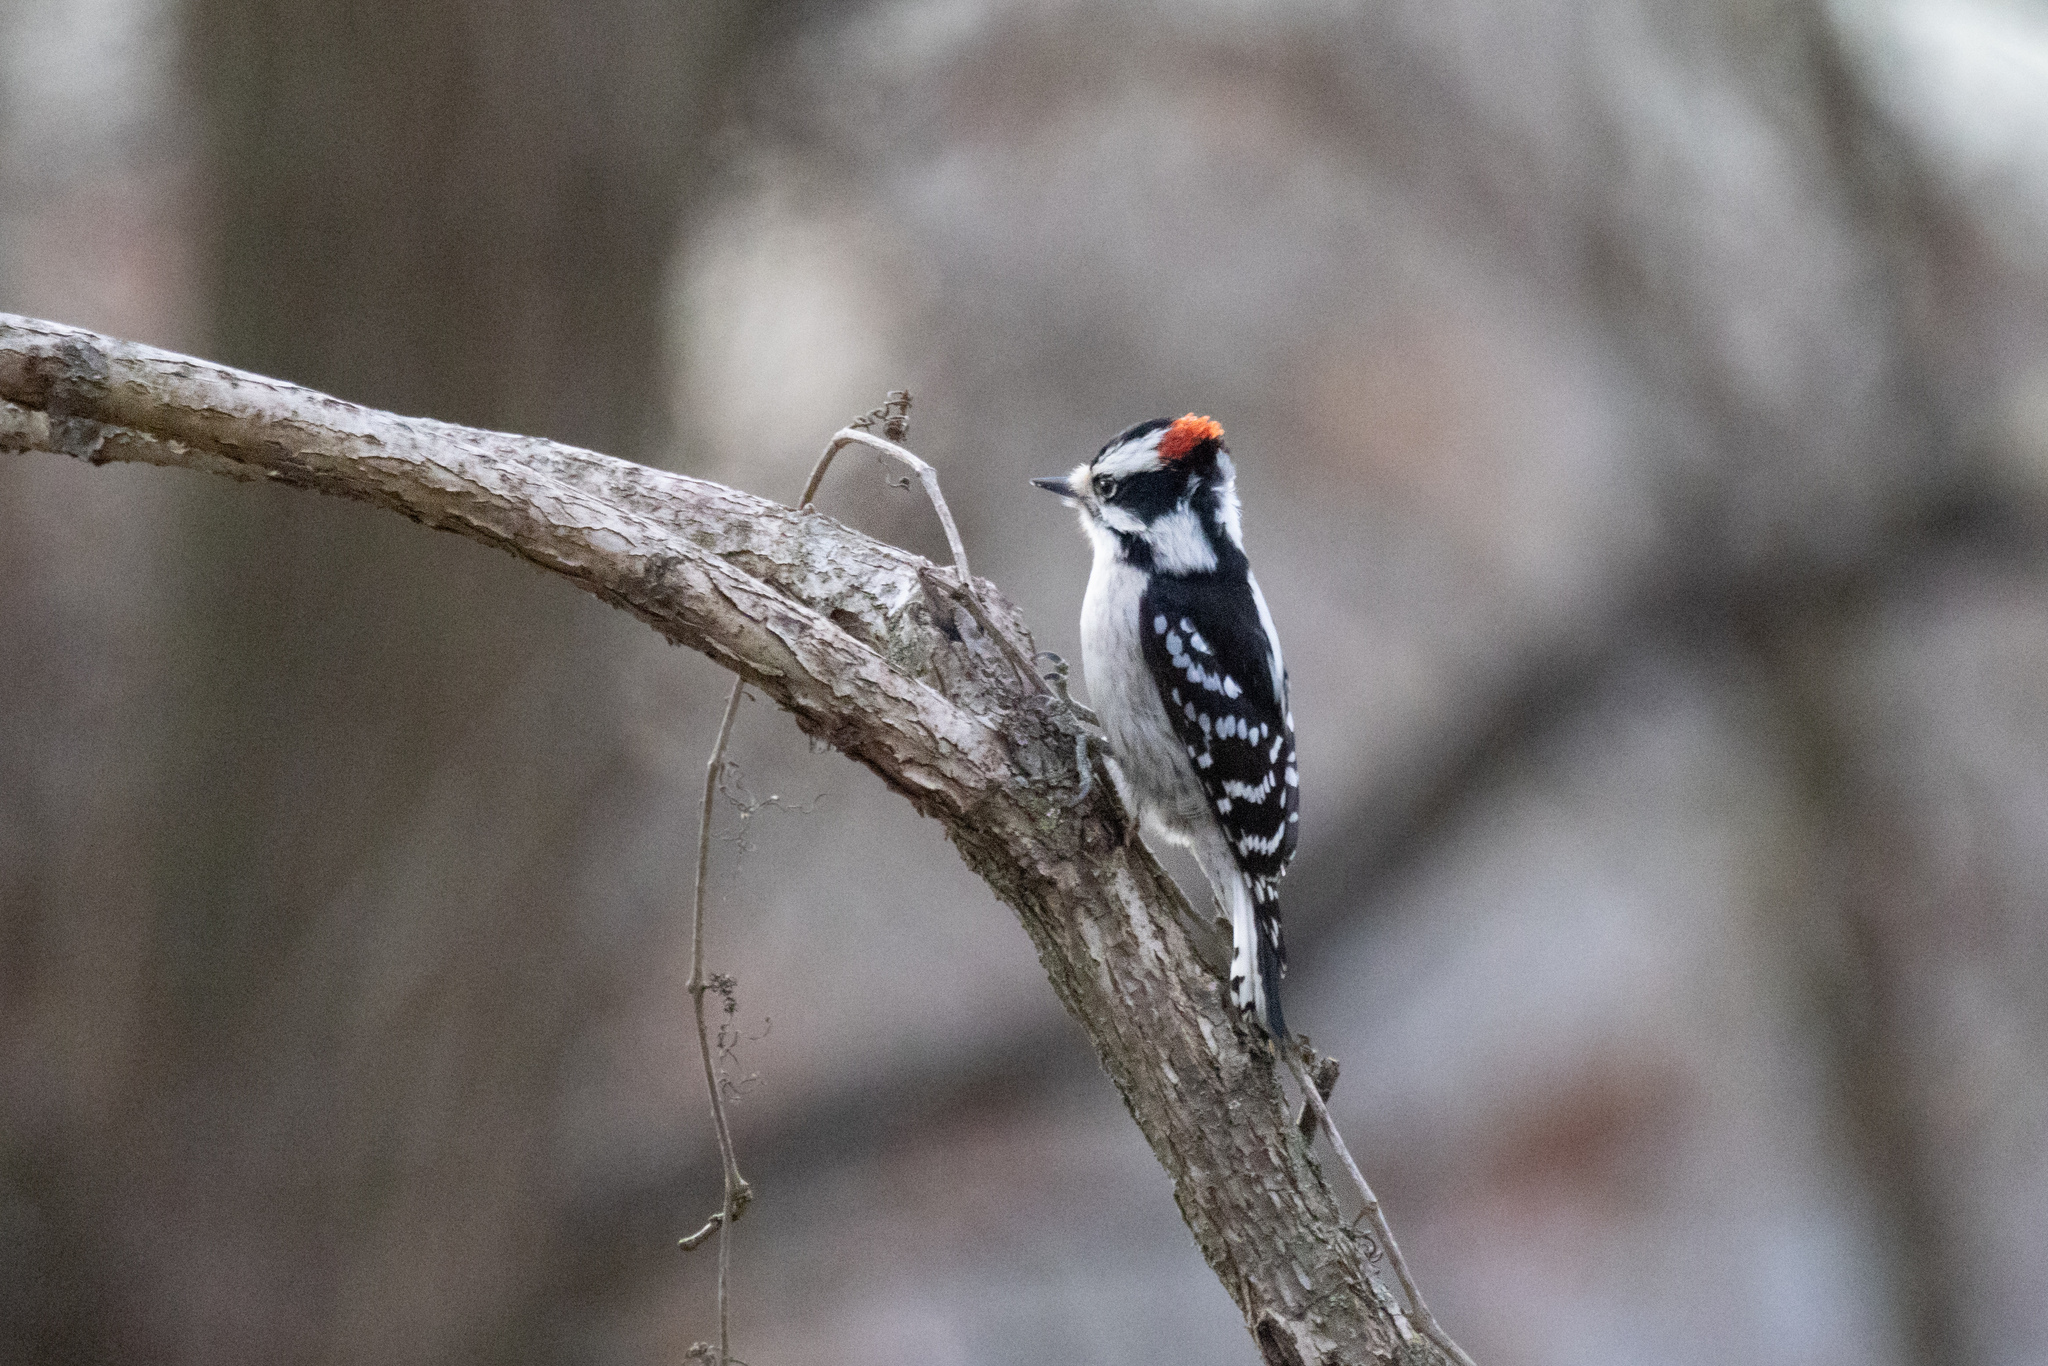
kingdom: Animalia
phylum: Chordata
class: Aves
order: Piciformes
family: Picidae
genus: Dryobates
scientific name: Dryobates pubescens
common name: Downy woodpecker
